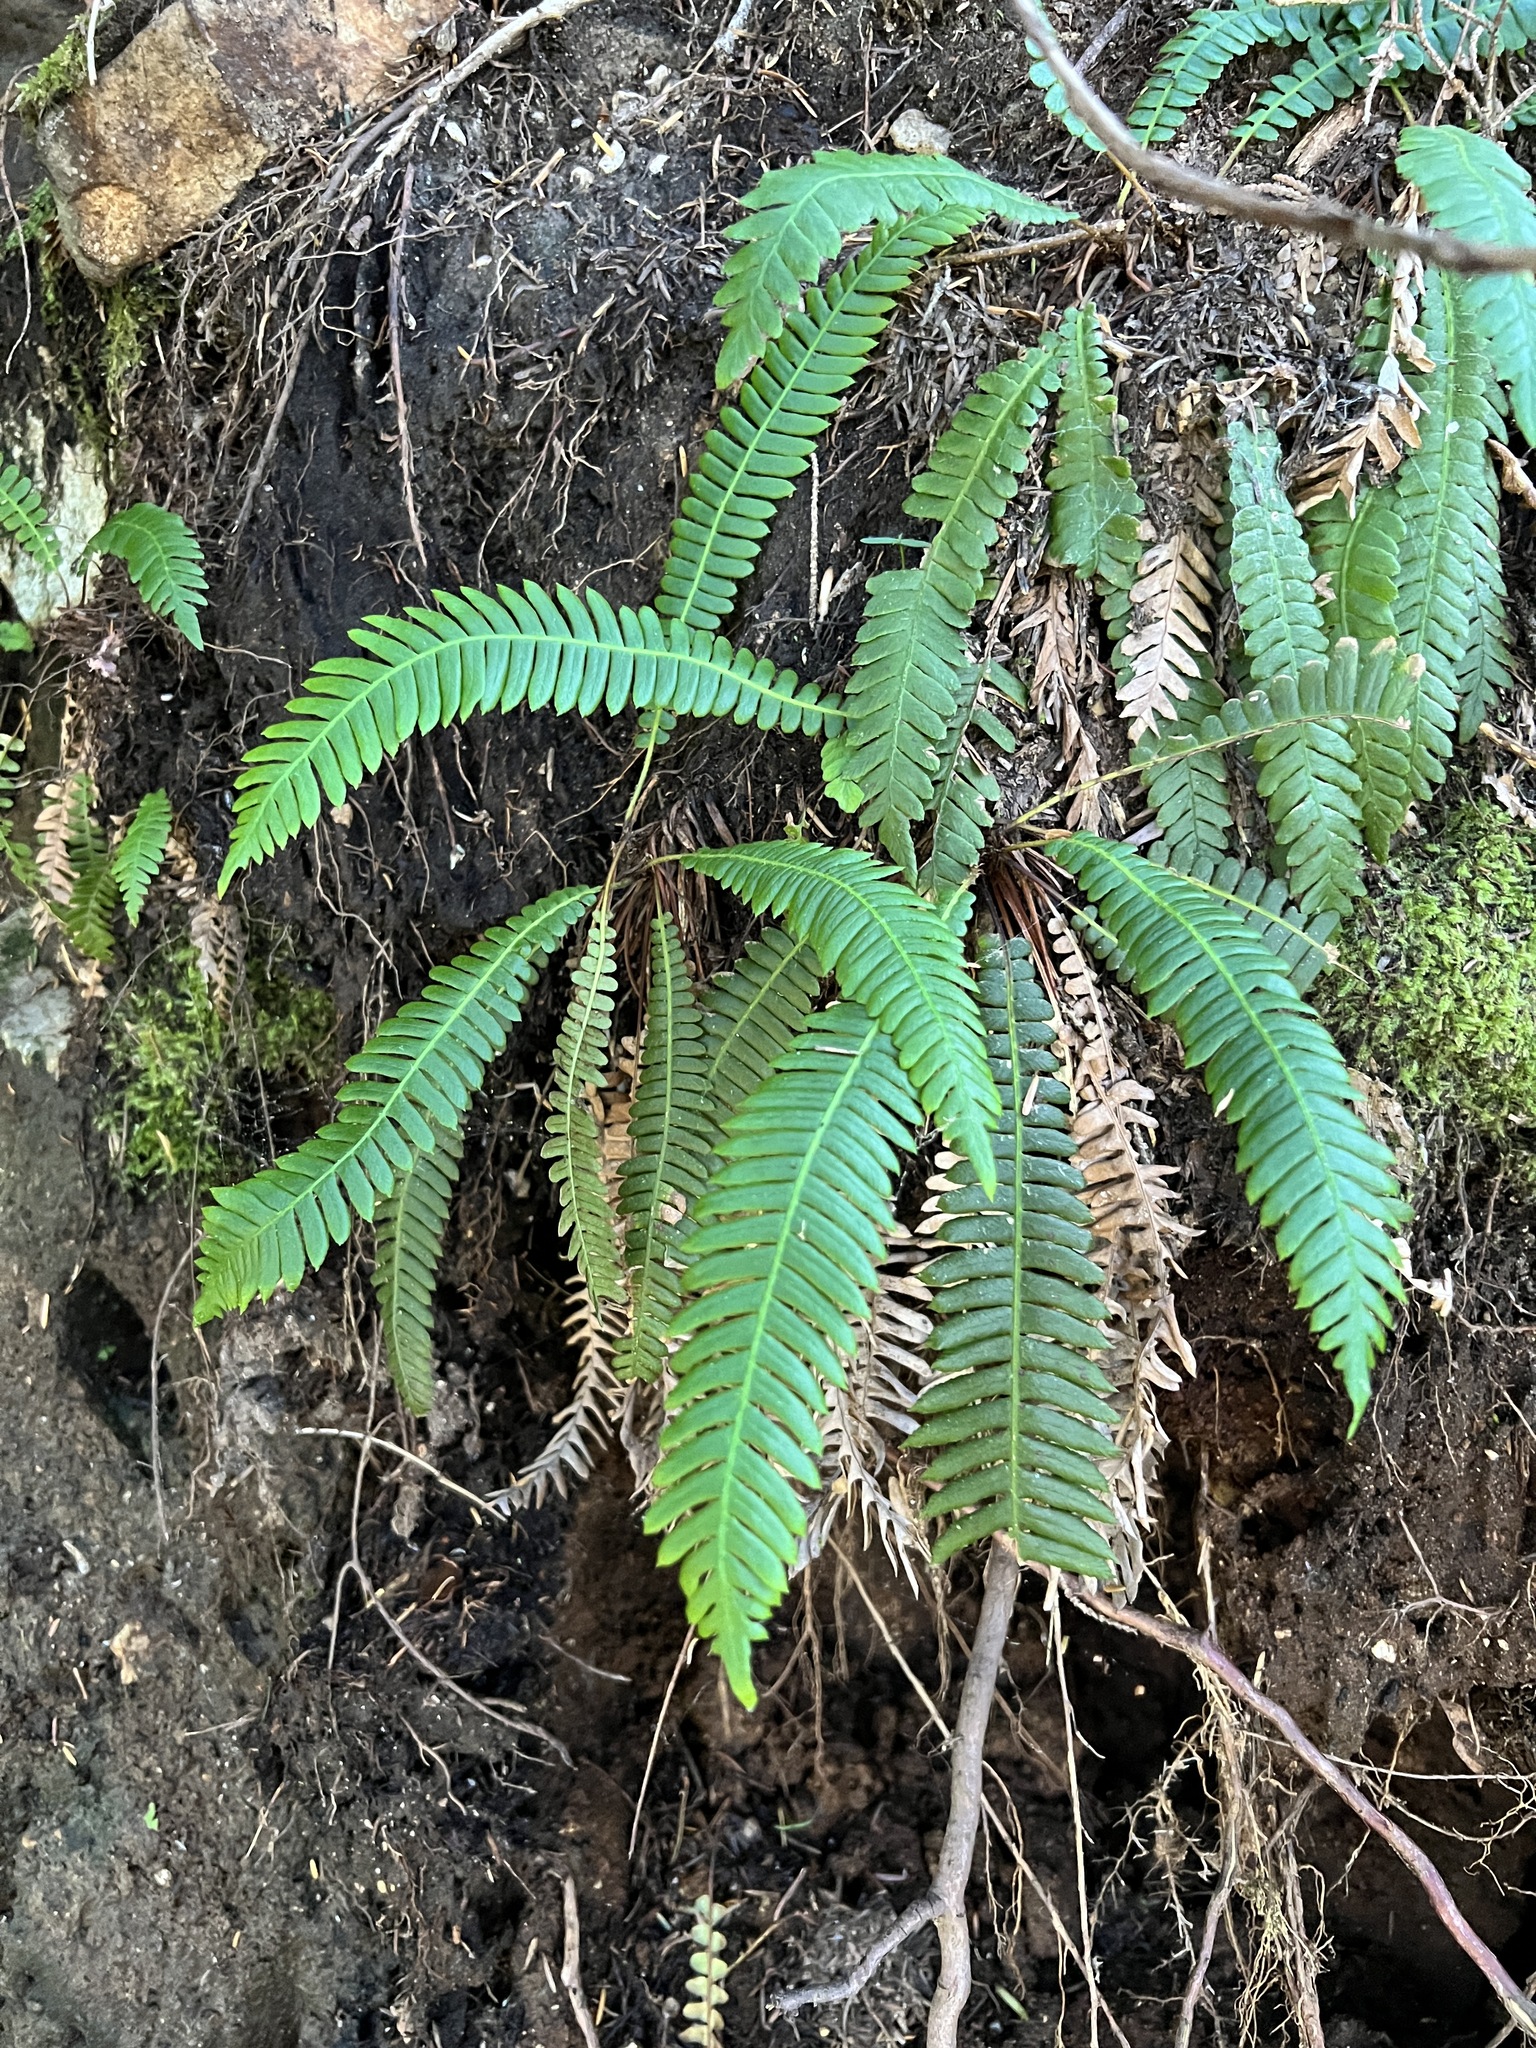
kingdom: Plantae
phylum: Tracheophyta
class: Polypodiopsida
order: Polypodiales
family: Blechnaceae
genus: Struthiopteris
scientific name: Struthiopteris spicant
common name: Deer fern
